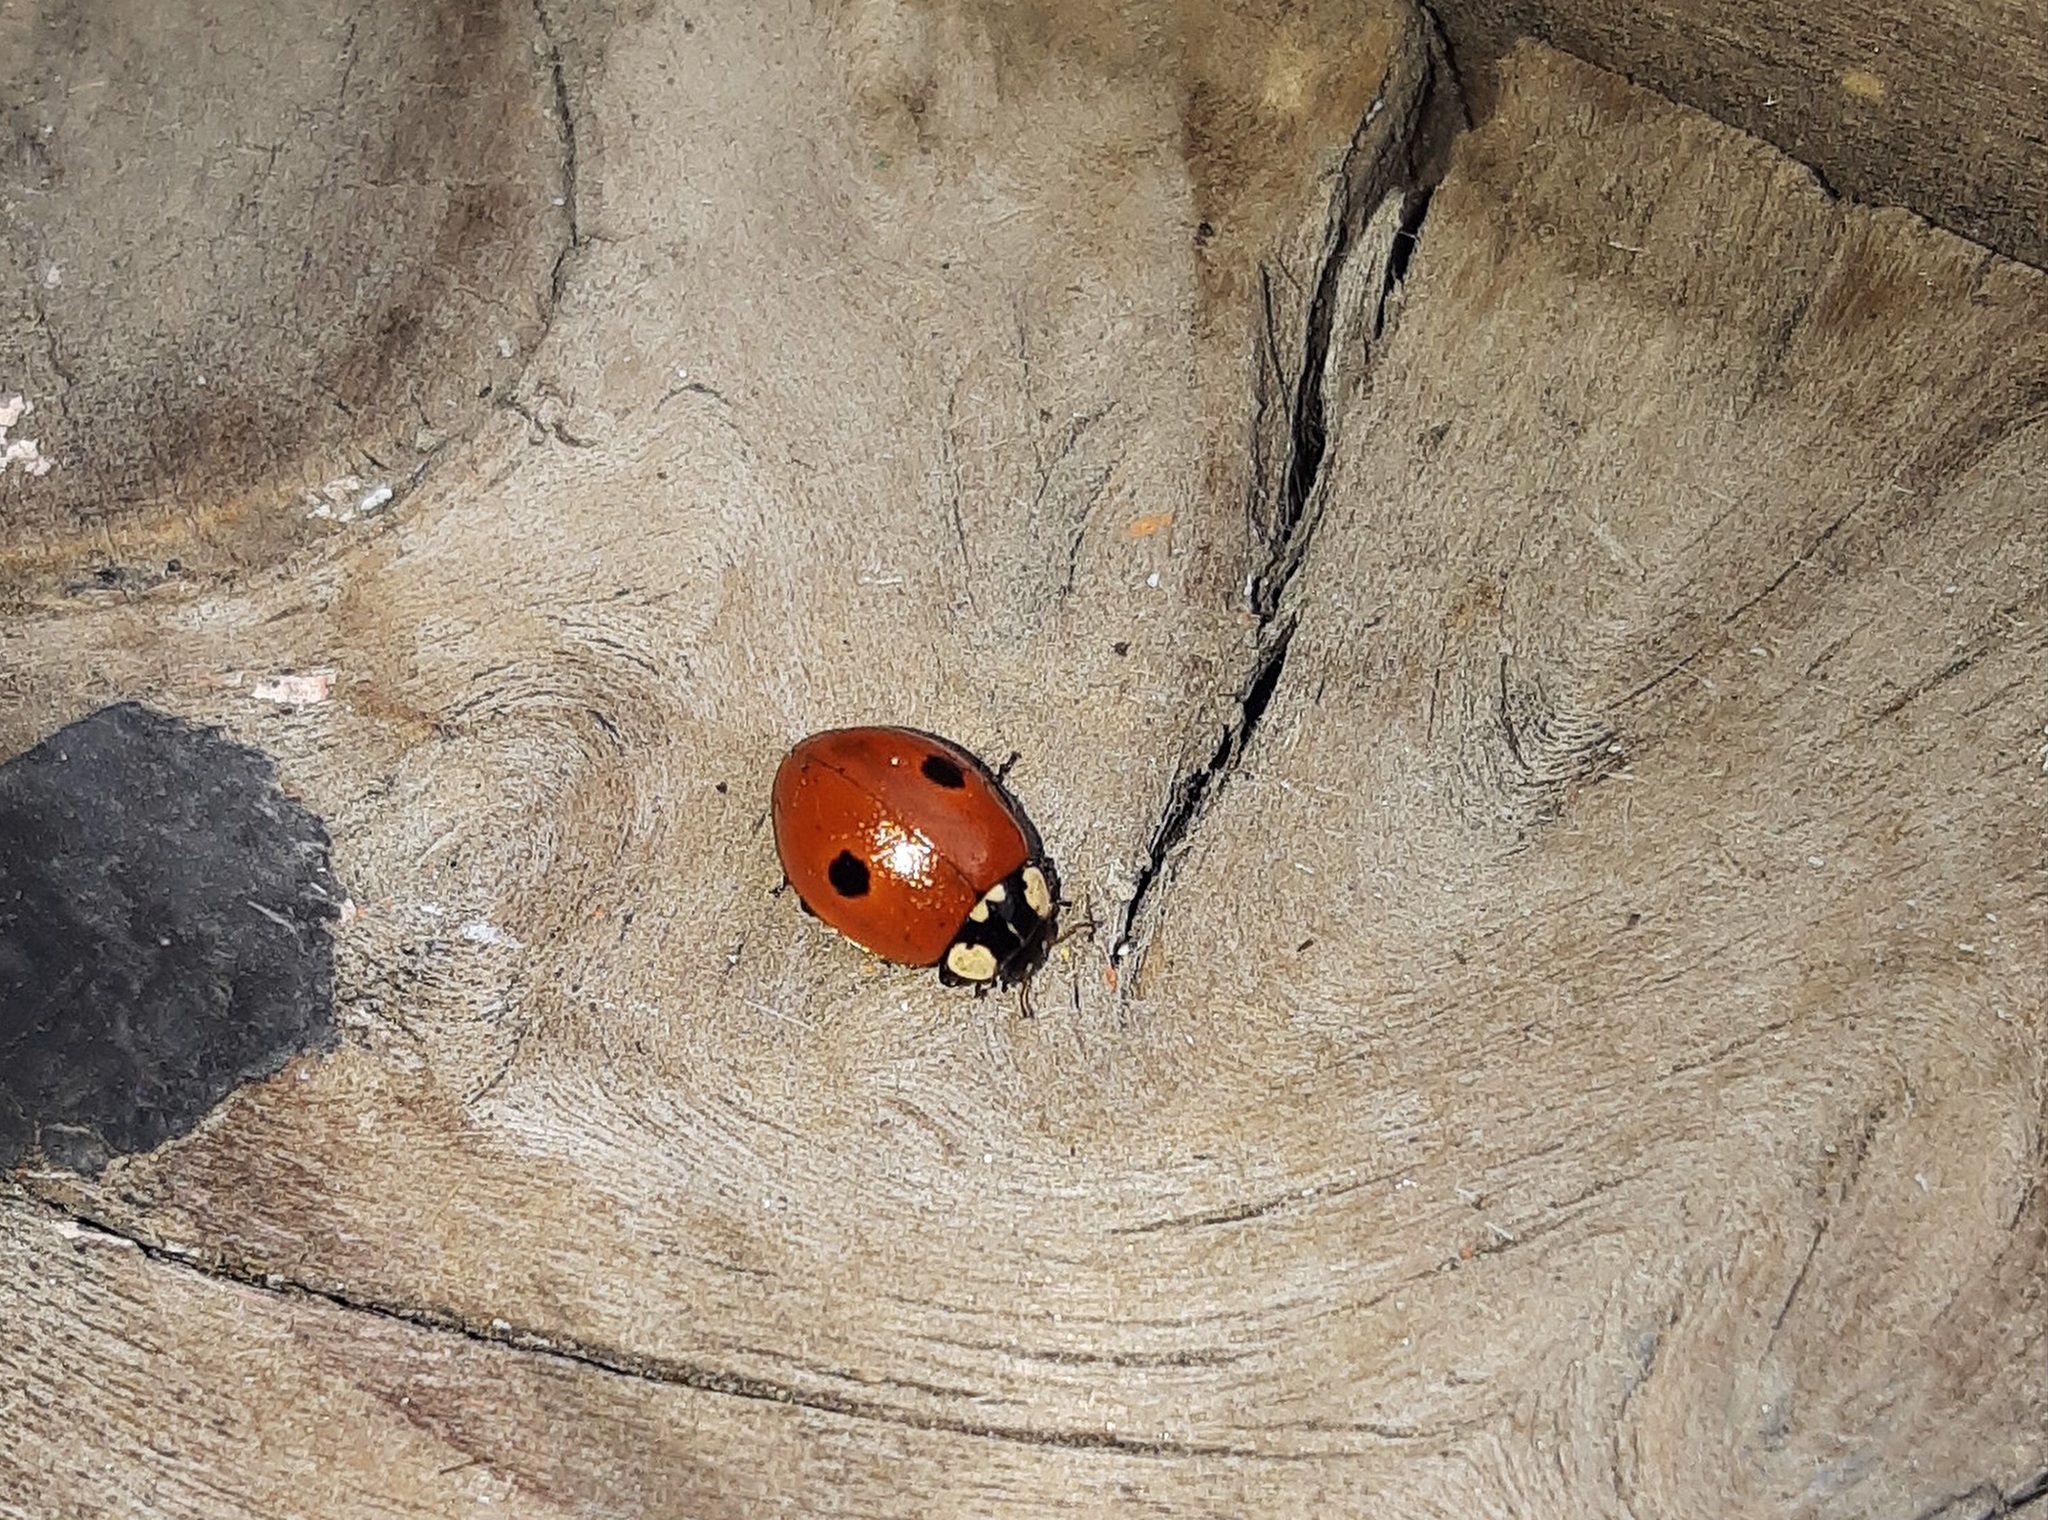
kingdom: Animalia
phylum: Arthropoda
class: Insecta
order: Coleoptera
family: Coccinellidae
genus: Adalia
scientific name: Adalia bipunctata
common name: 2-spot ladybird
